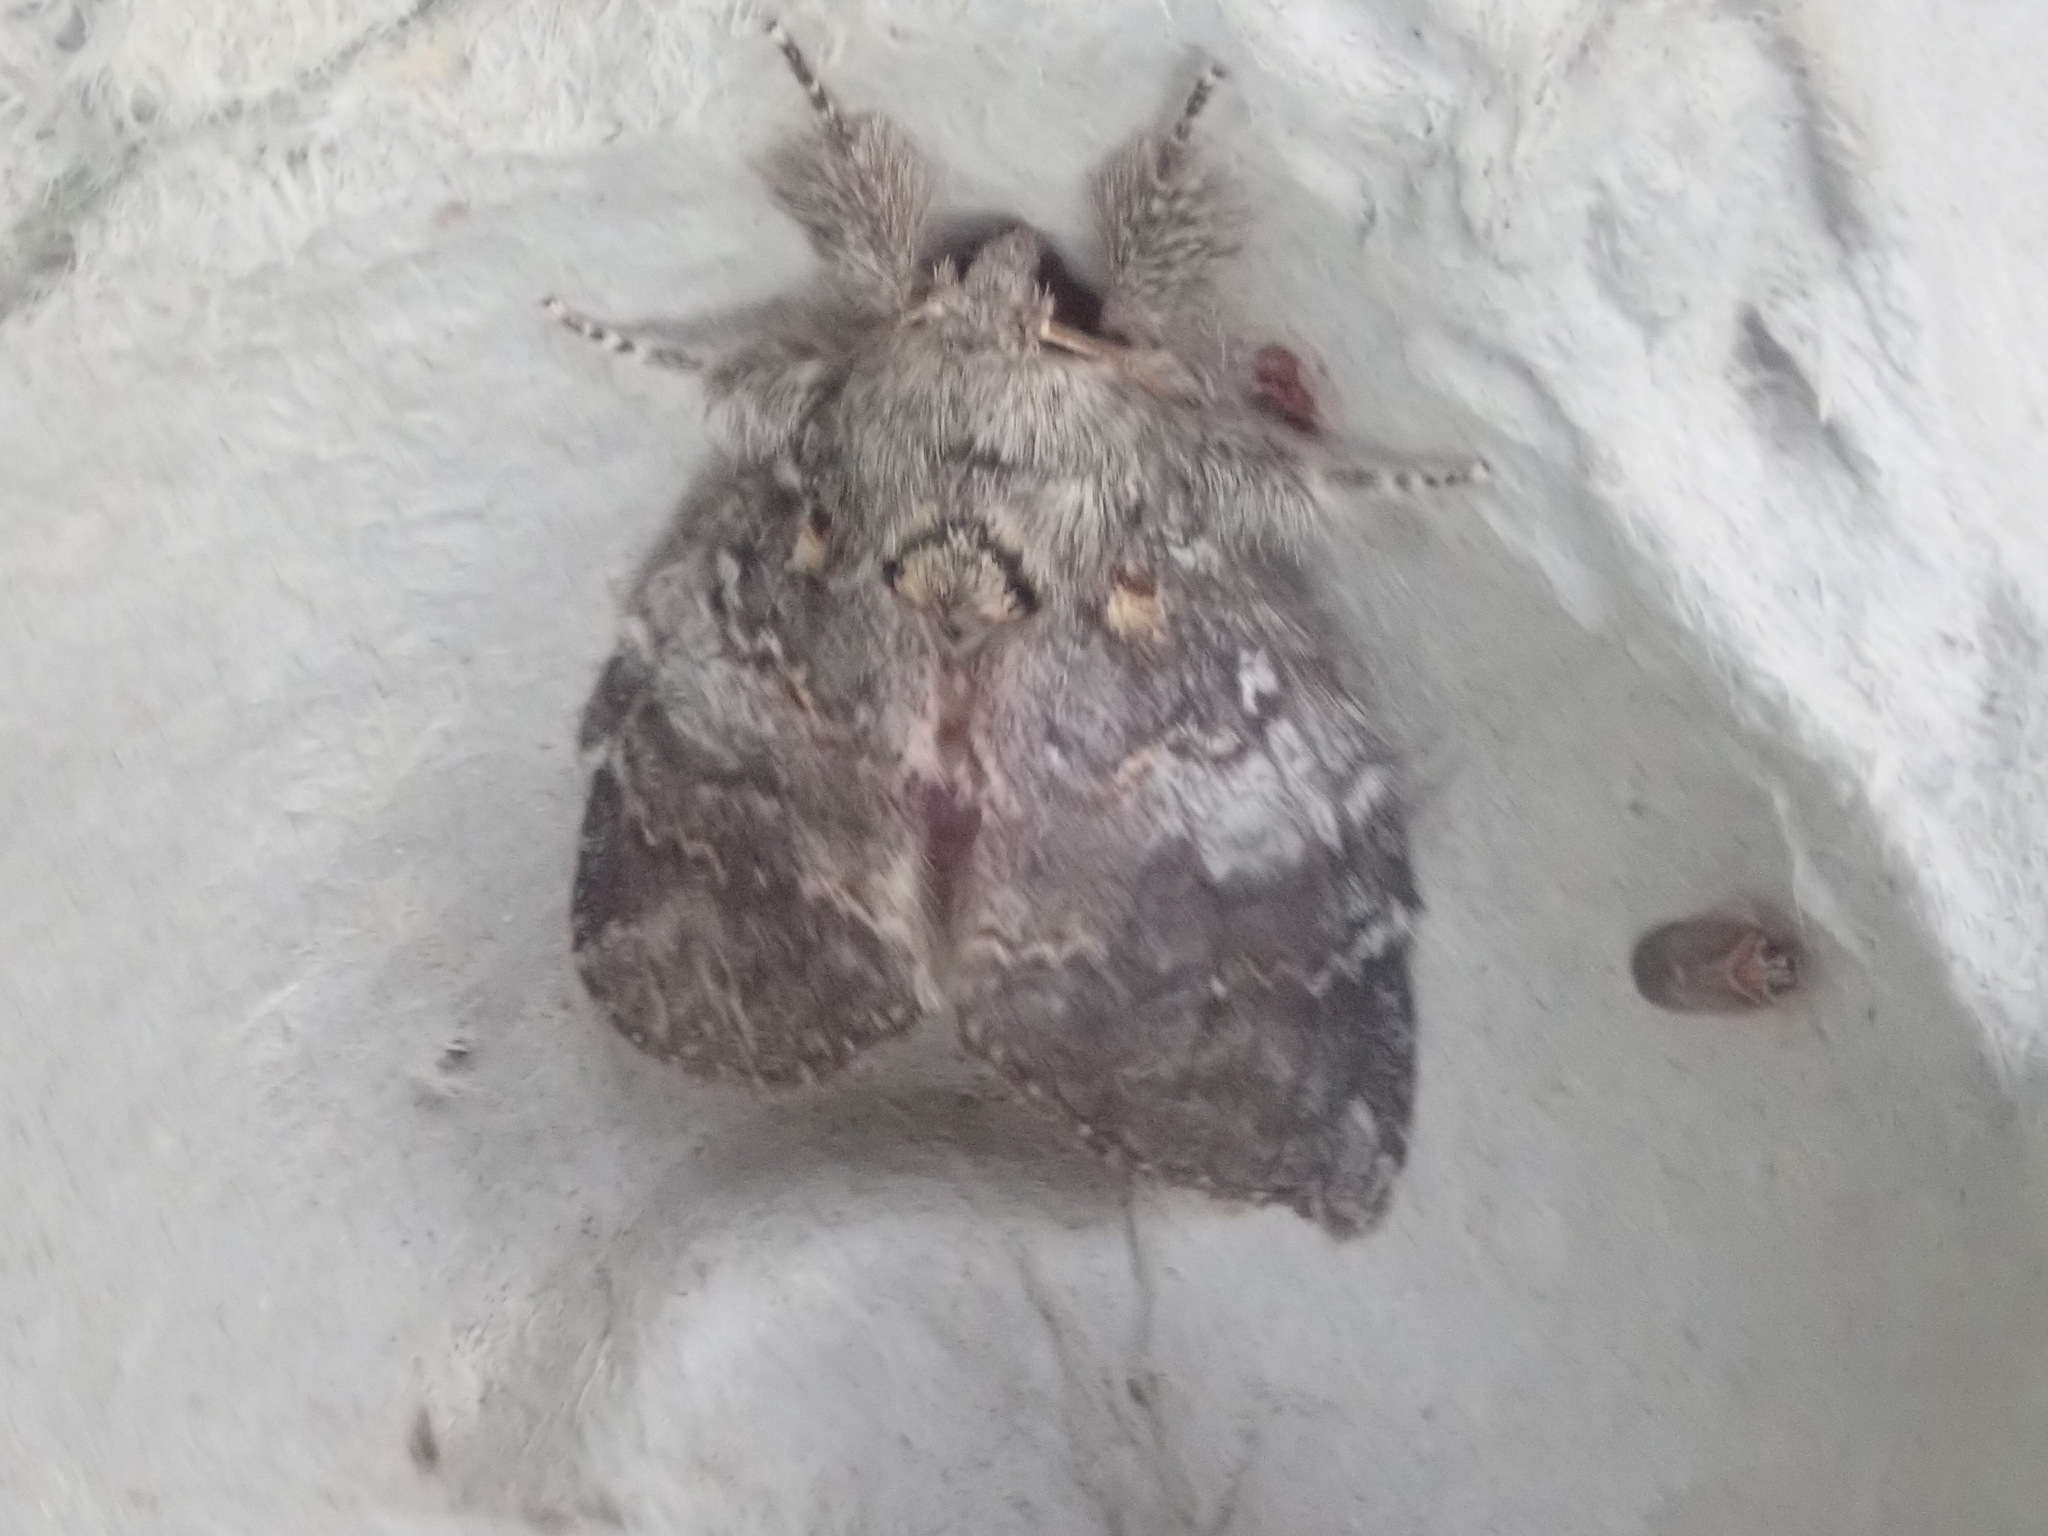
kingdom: Animalia
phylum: Arthropoda
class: Insecta
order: Lepidoptera
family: Notodontidae
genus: Peridea
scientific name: Peridea angulosa
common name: Angulose prominent
